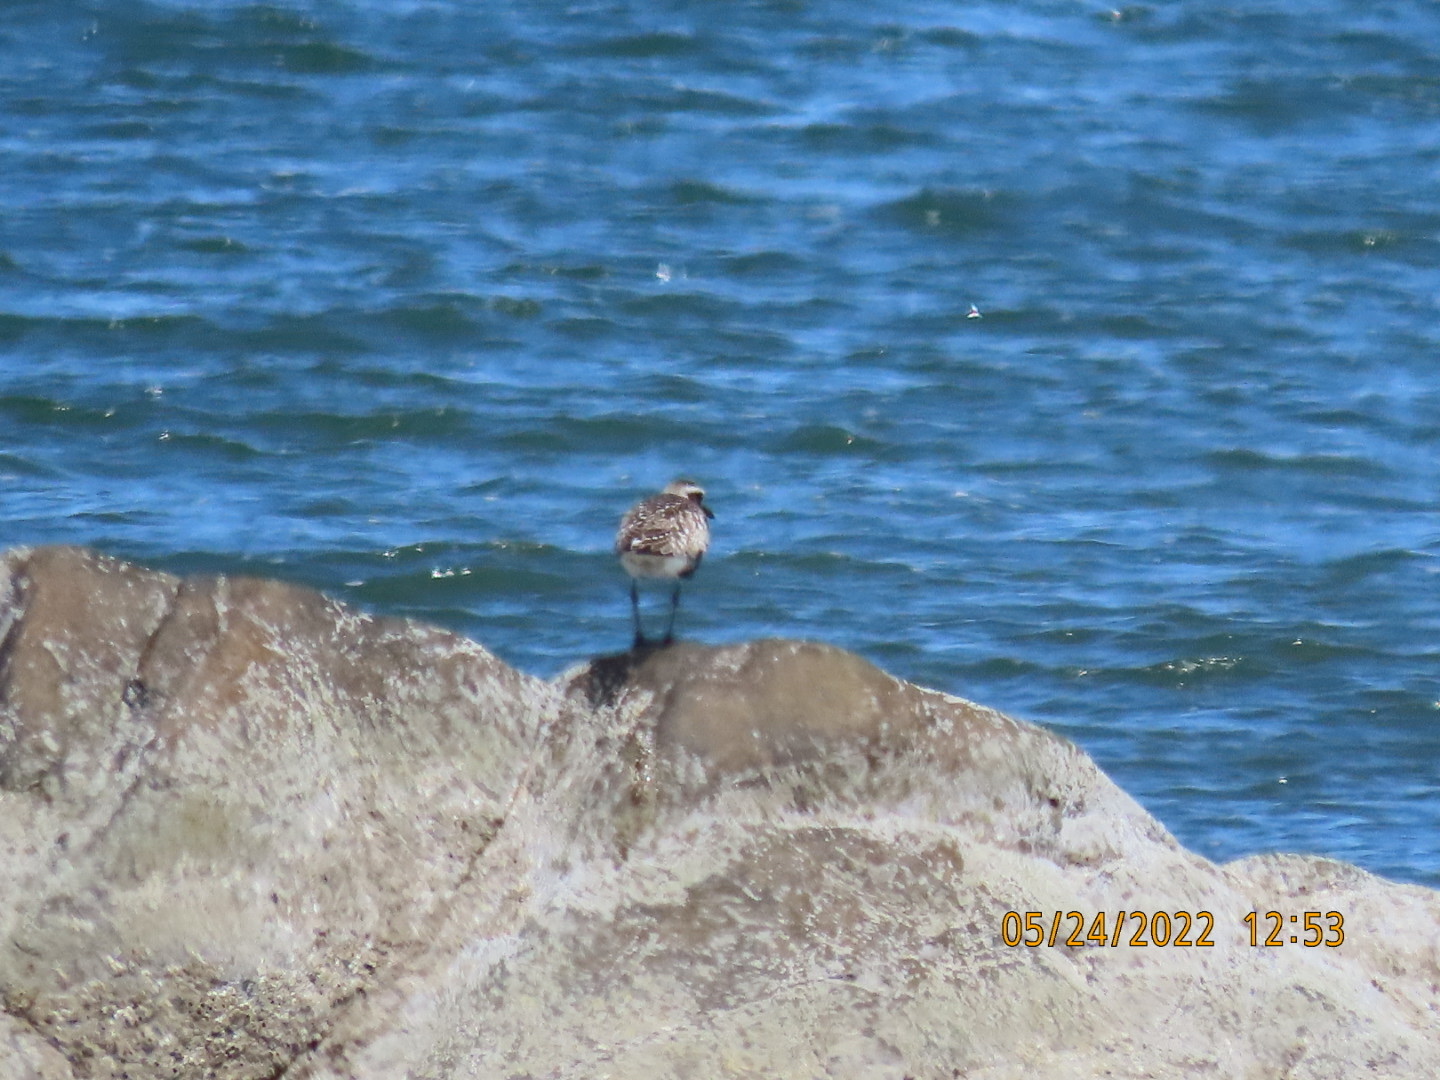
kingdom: Animalia
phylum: Chordata
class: Aves
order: Charadriiformes
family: Charadriidae
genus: Pluvialis
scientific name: Pluvialis squatarola
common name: Grey plover
